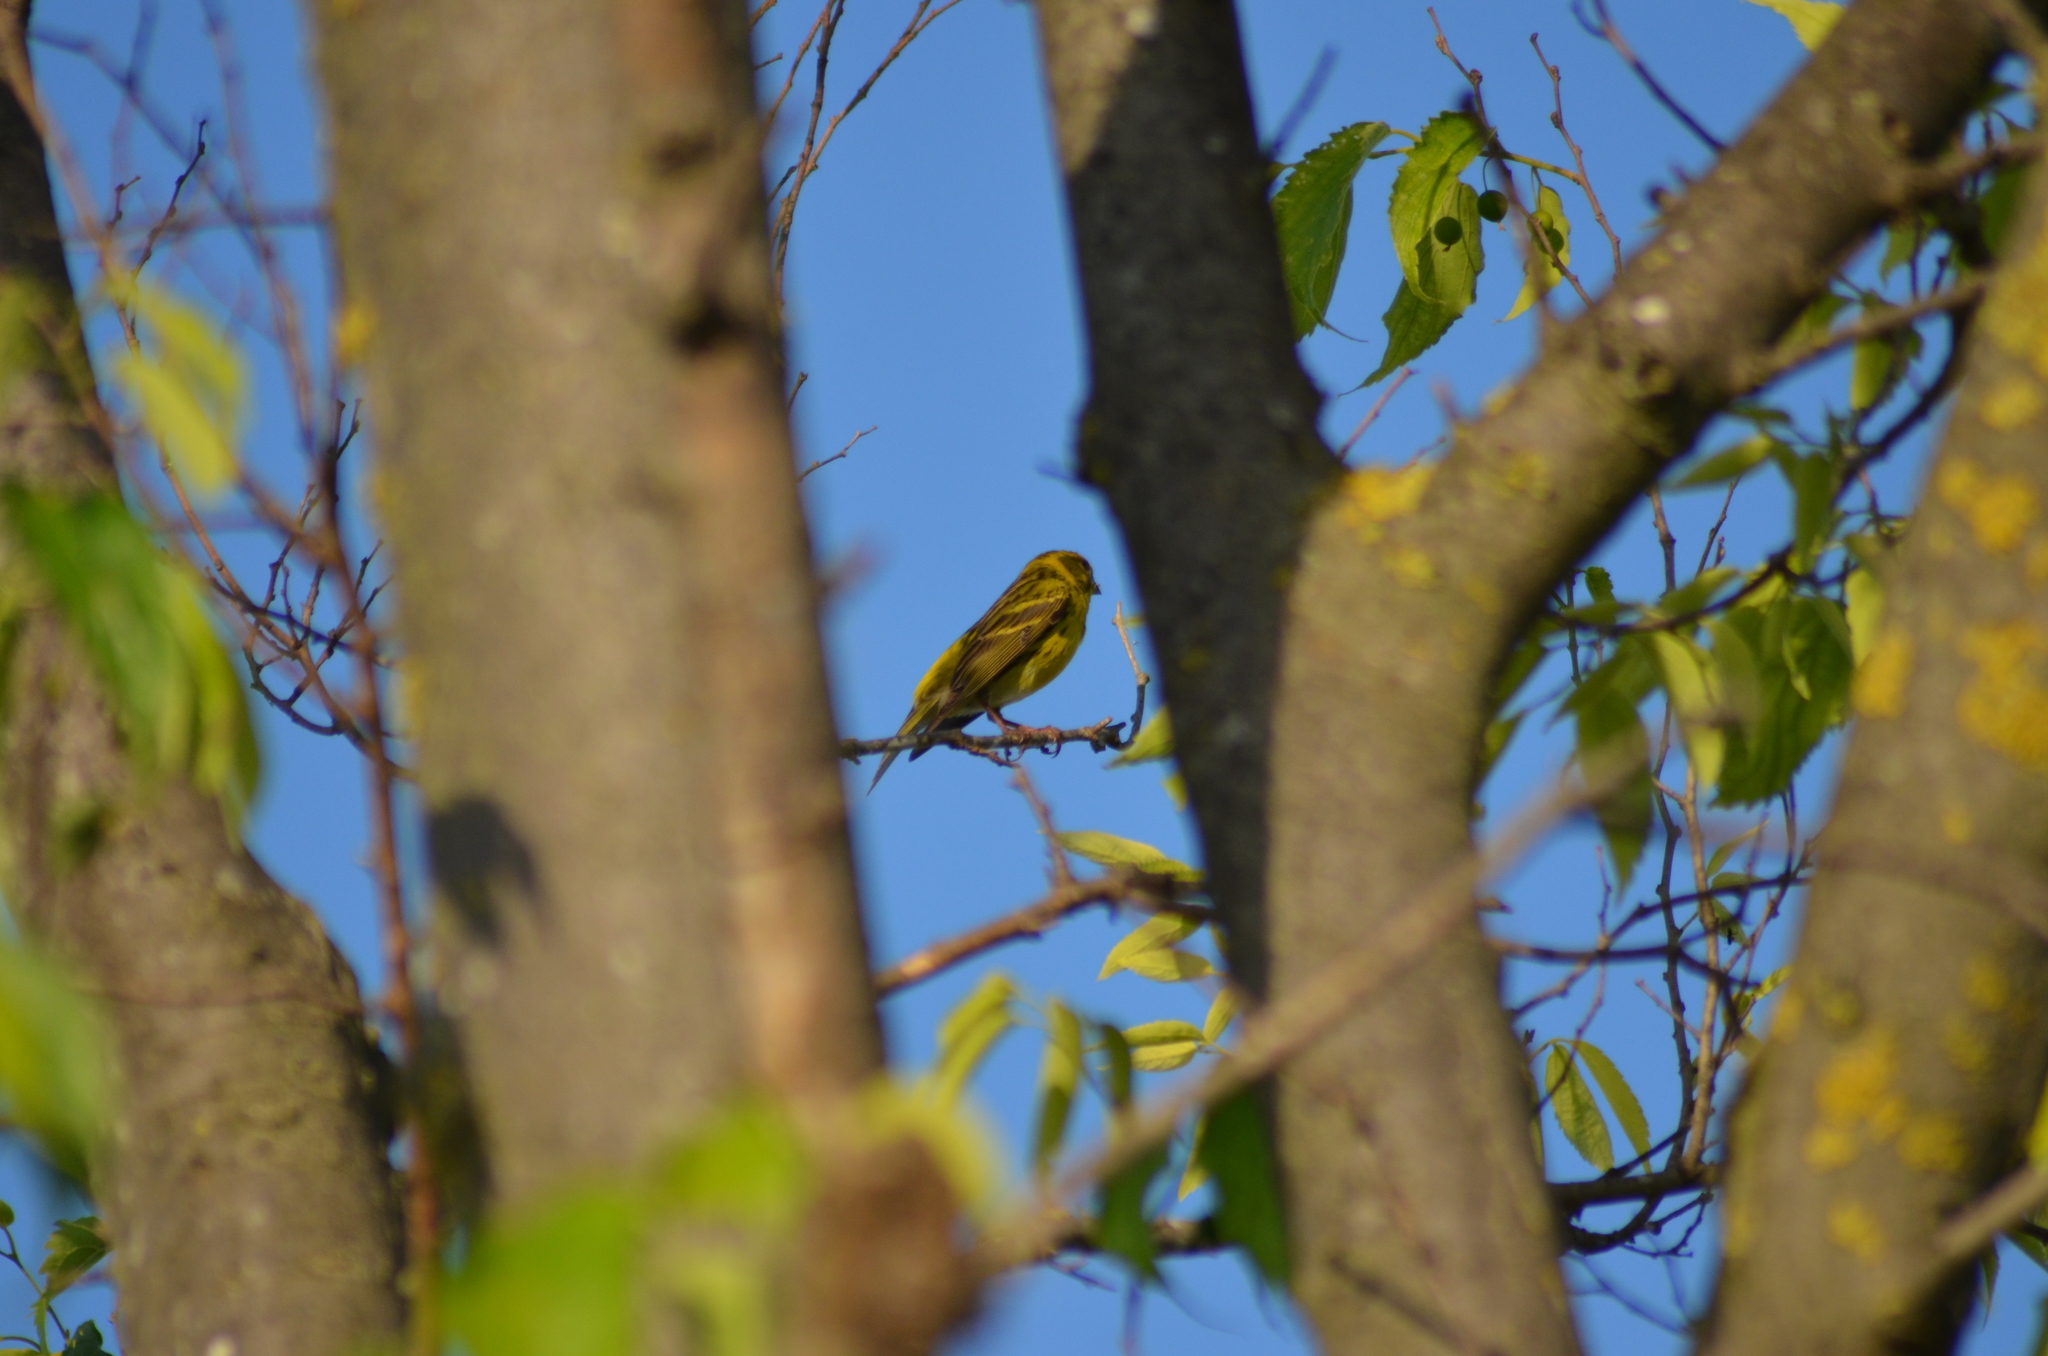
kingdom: Animalia
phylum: Chordata
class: Aves
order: Passeriformes
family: Fringillidae
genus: Serinus
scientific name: Serinus serinus
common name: European serin
